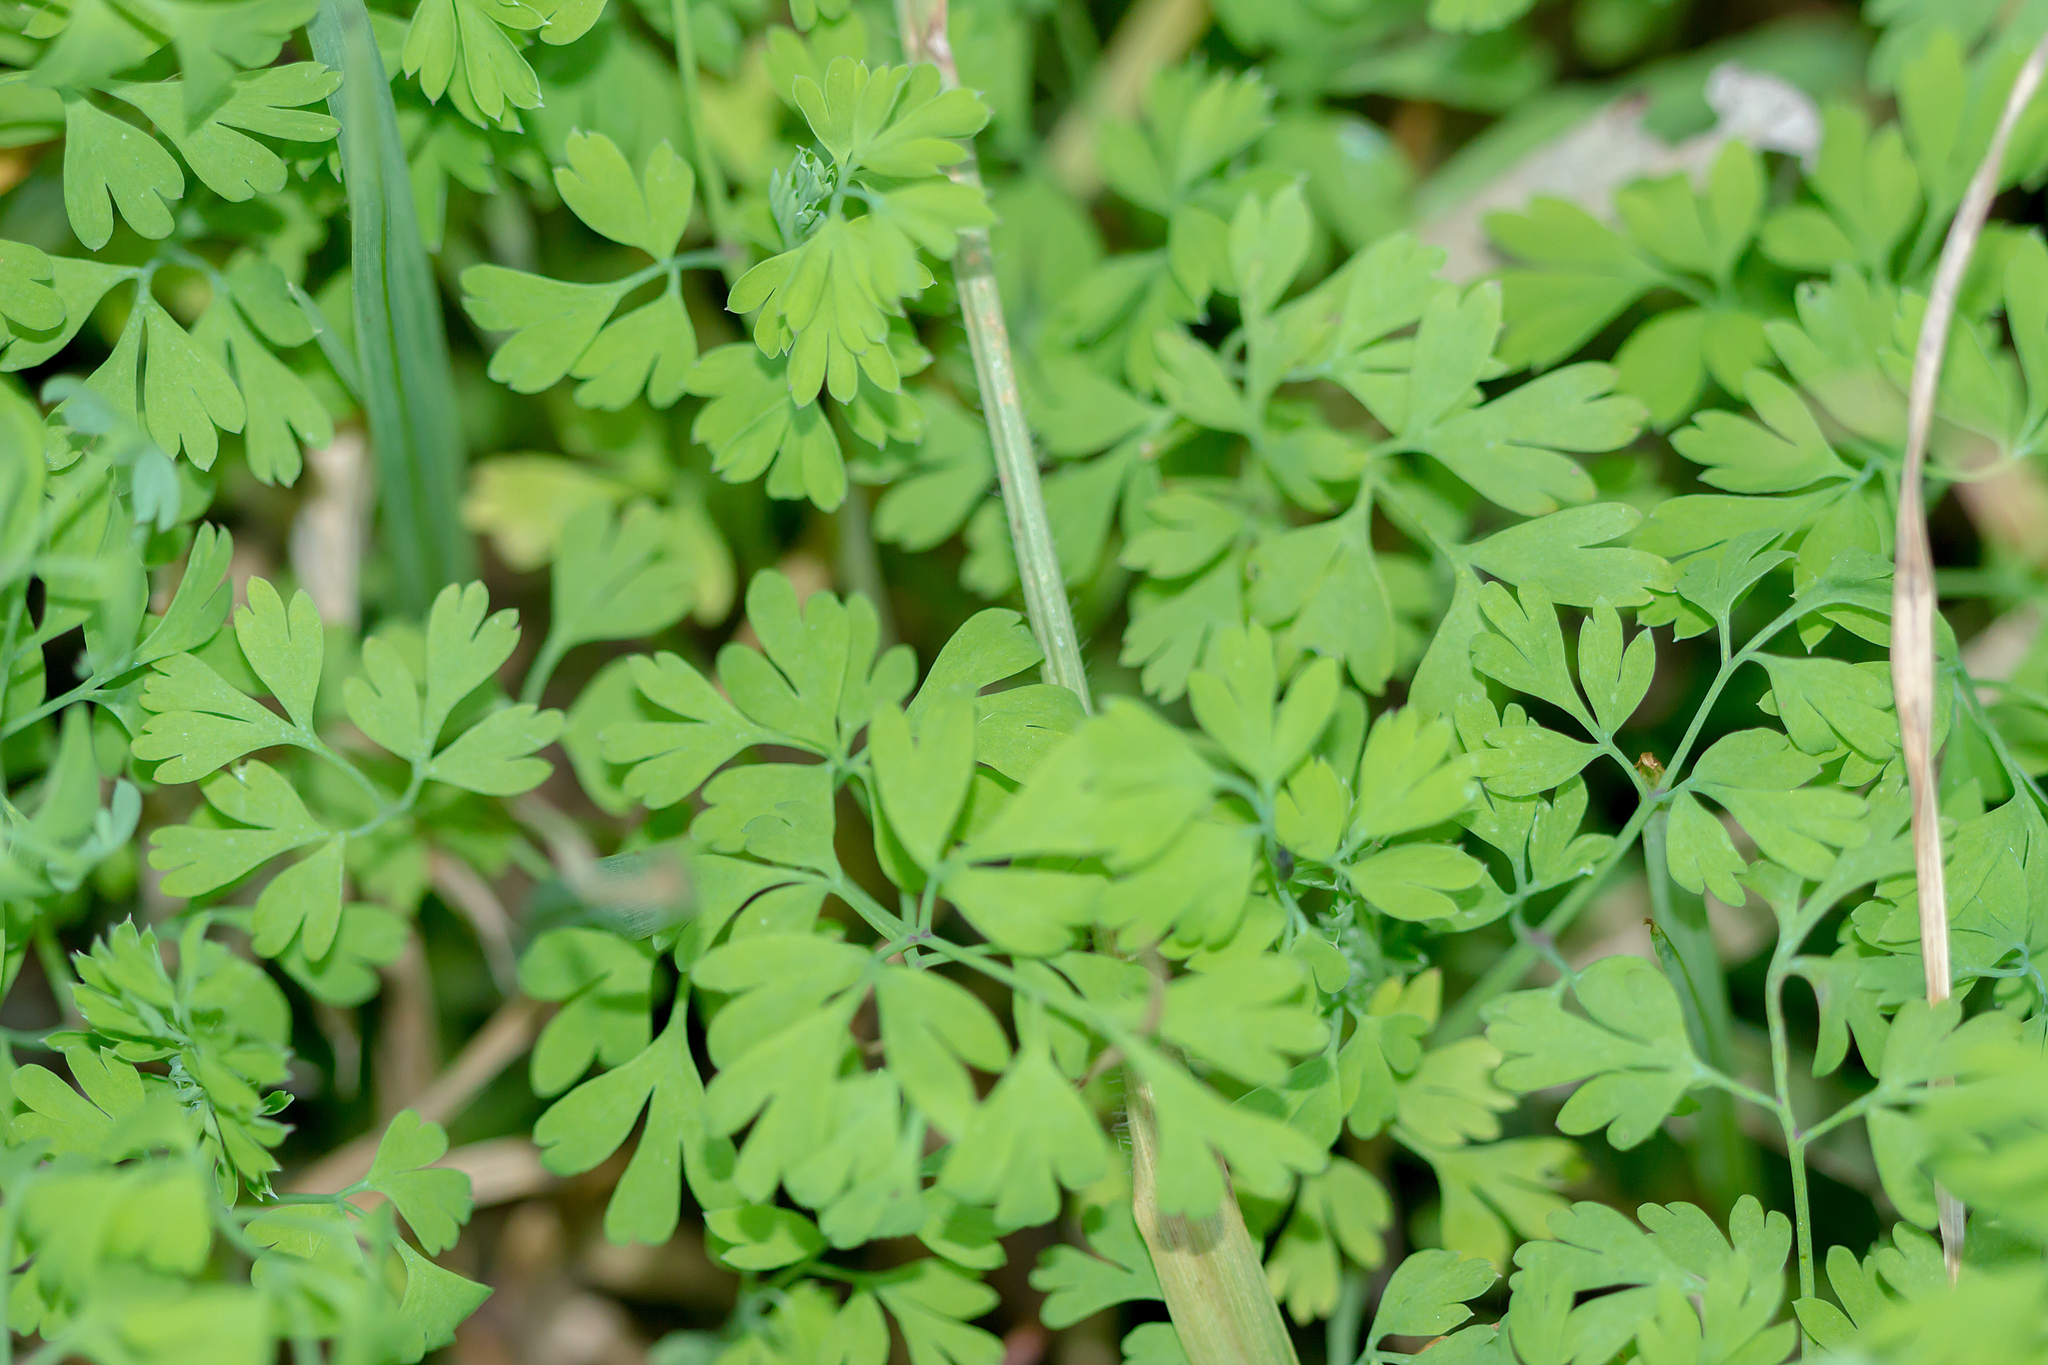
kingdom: Plantae
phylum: Tracheophyta
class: Magnoliopsida
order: Ranunculales
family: Papaveraceae
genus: Fumaria
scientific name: Fumaria capreolata
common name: White ramping-fumitory
